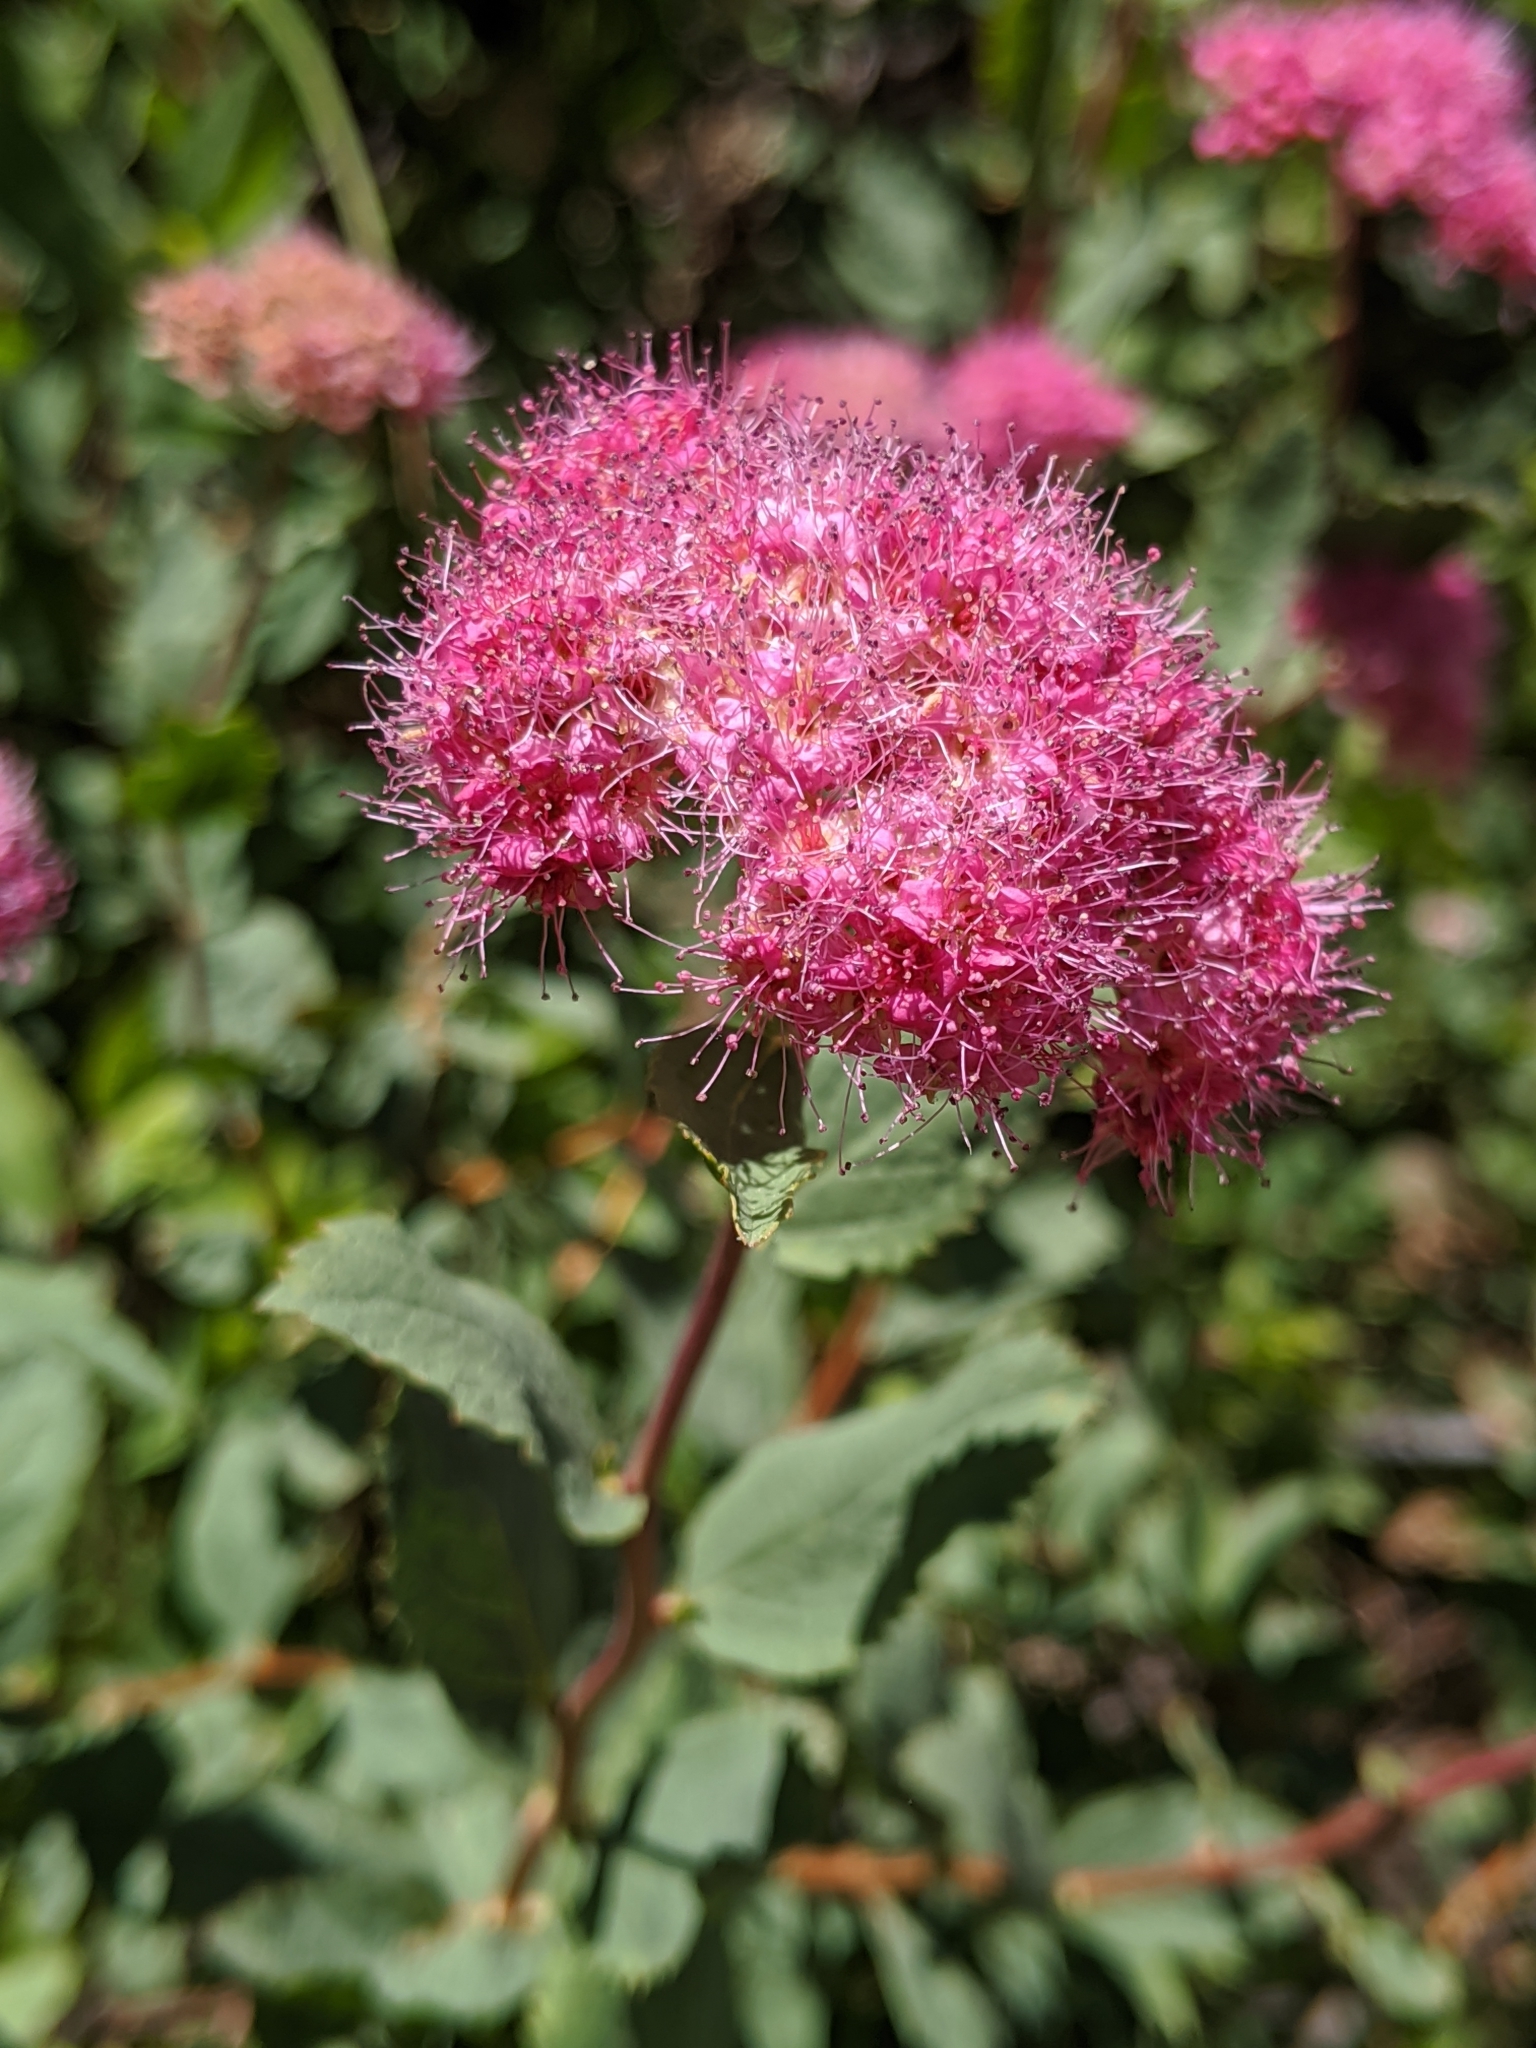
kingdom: Plantae
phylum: Tracheophyta
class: Magnoliopsida
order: Rosales
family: Rosaceae
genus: Spiraea
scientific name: Spiraea splendens
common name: Subalpine meadowsweet
